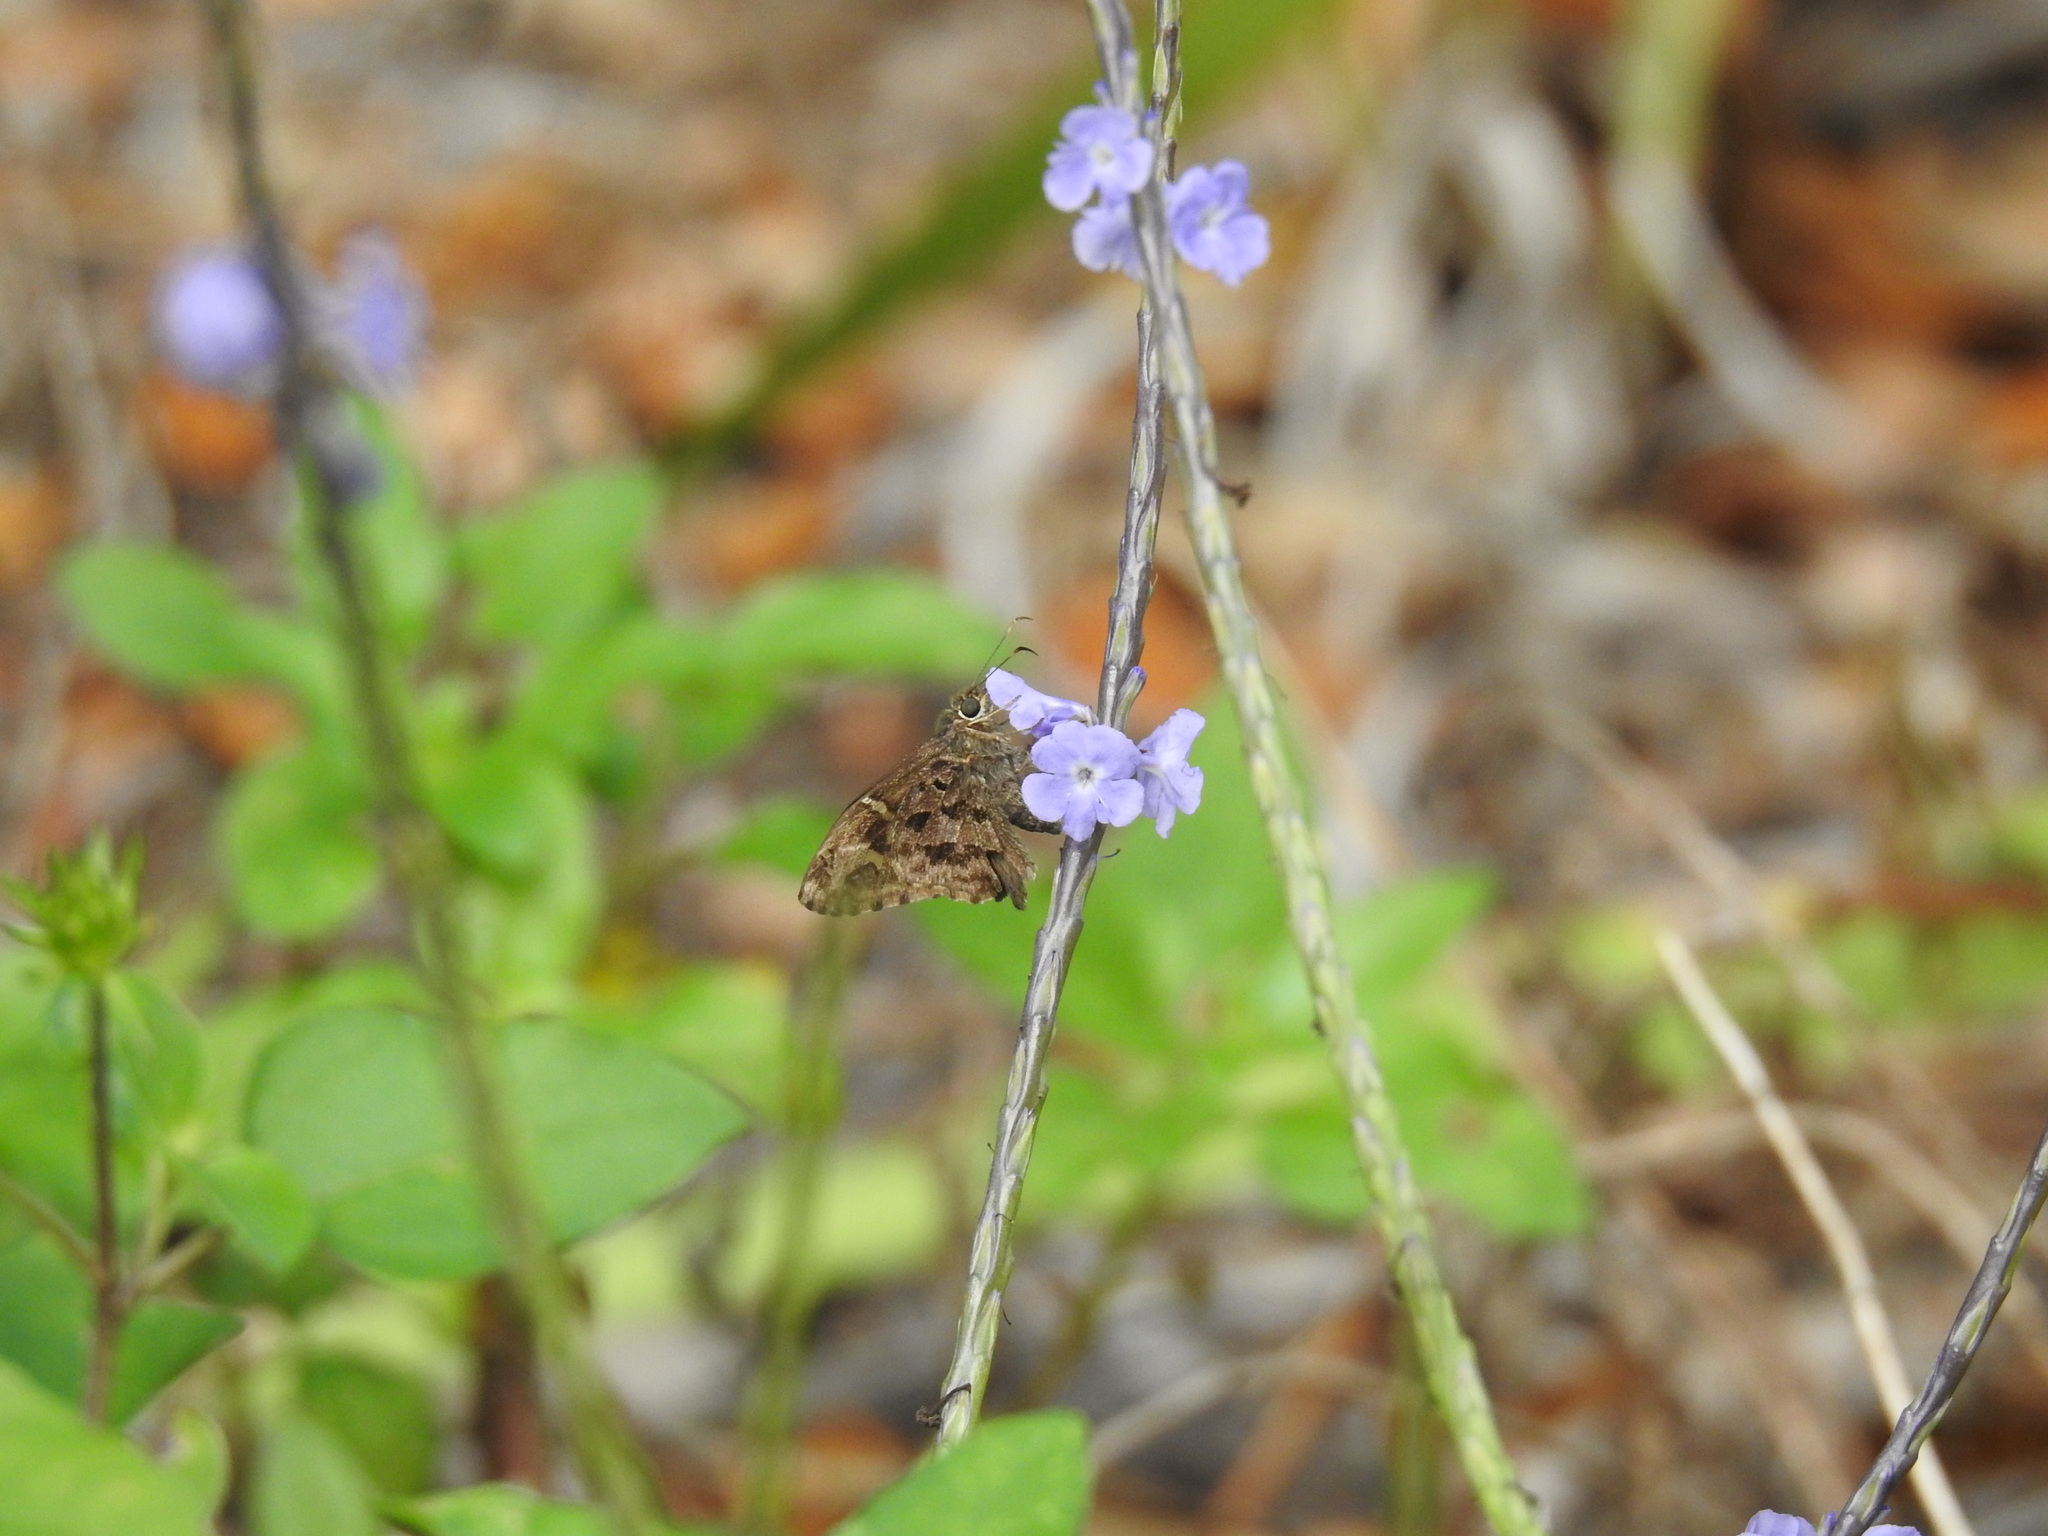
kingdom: Animalia
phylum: Arthropoda
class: Insecta
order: Lepidoptera
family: Hesperiidae
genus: Thorybes
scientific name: Thorybes
